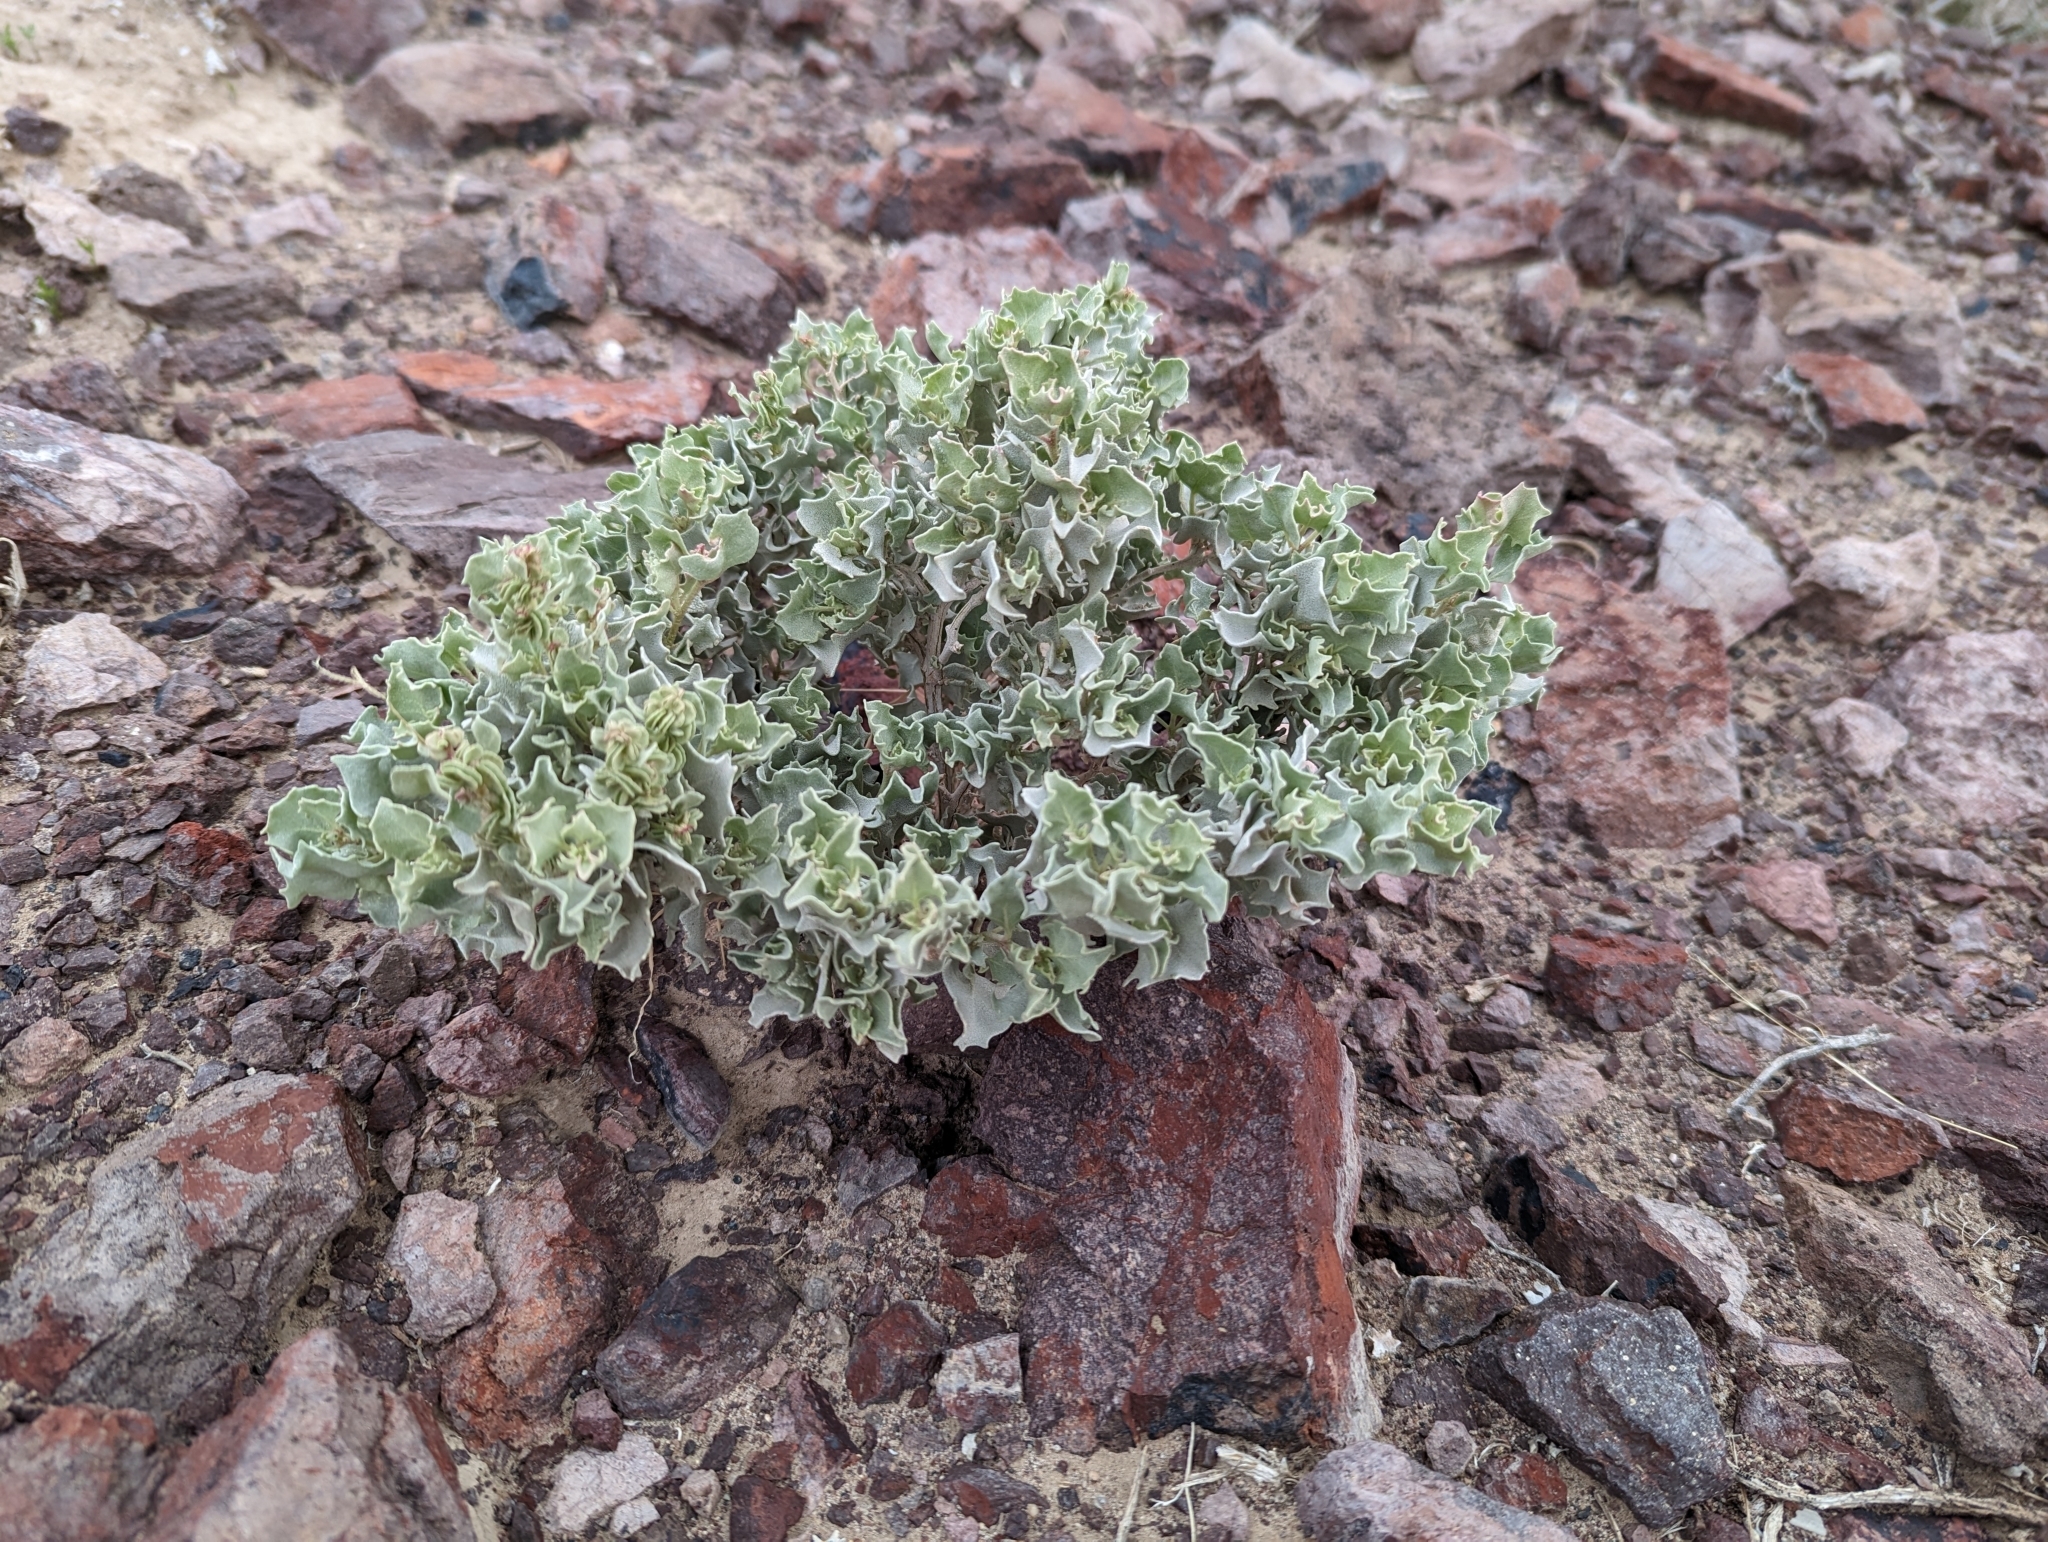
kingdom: Plantae
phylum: Tracheophyta
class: Magnoliopsida
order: Caryophyllales
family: Amaranthaceae
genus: Atriplex
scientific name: Atriplex hymenelytra
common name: Desert-holly
